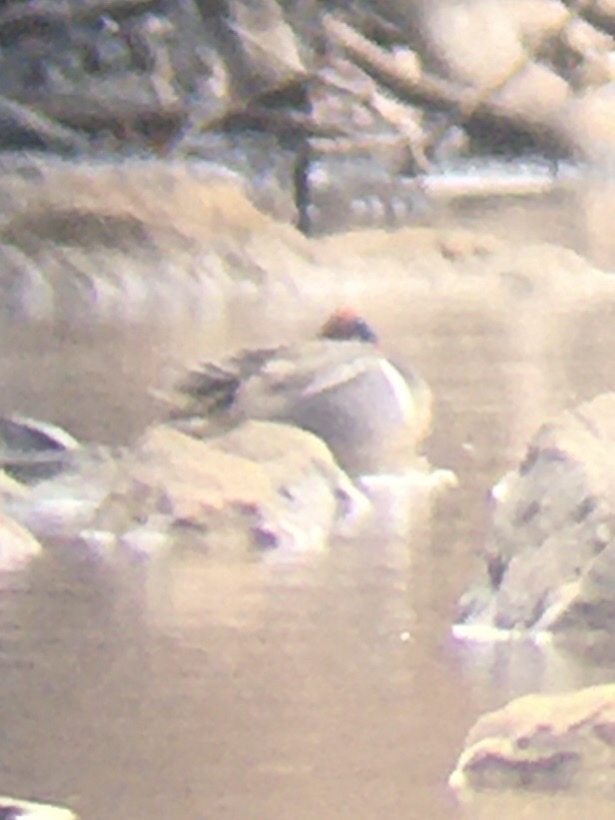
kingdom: Animalia
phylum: Chordata
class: Aves
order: Anseriformes
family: Anatidae
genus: Anas
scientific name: Anas carolinensis
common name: Green-winged teal
